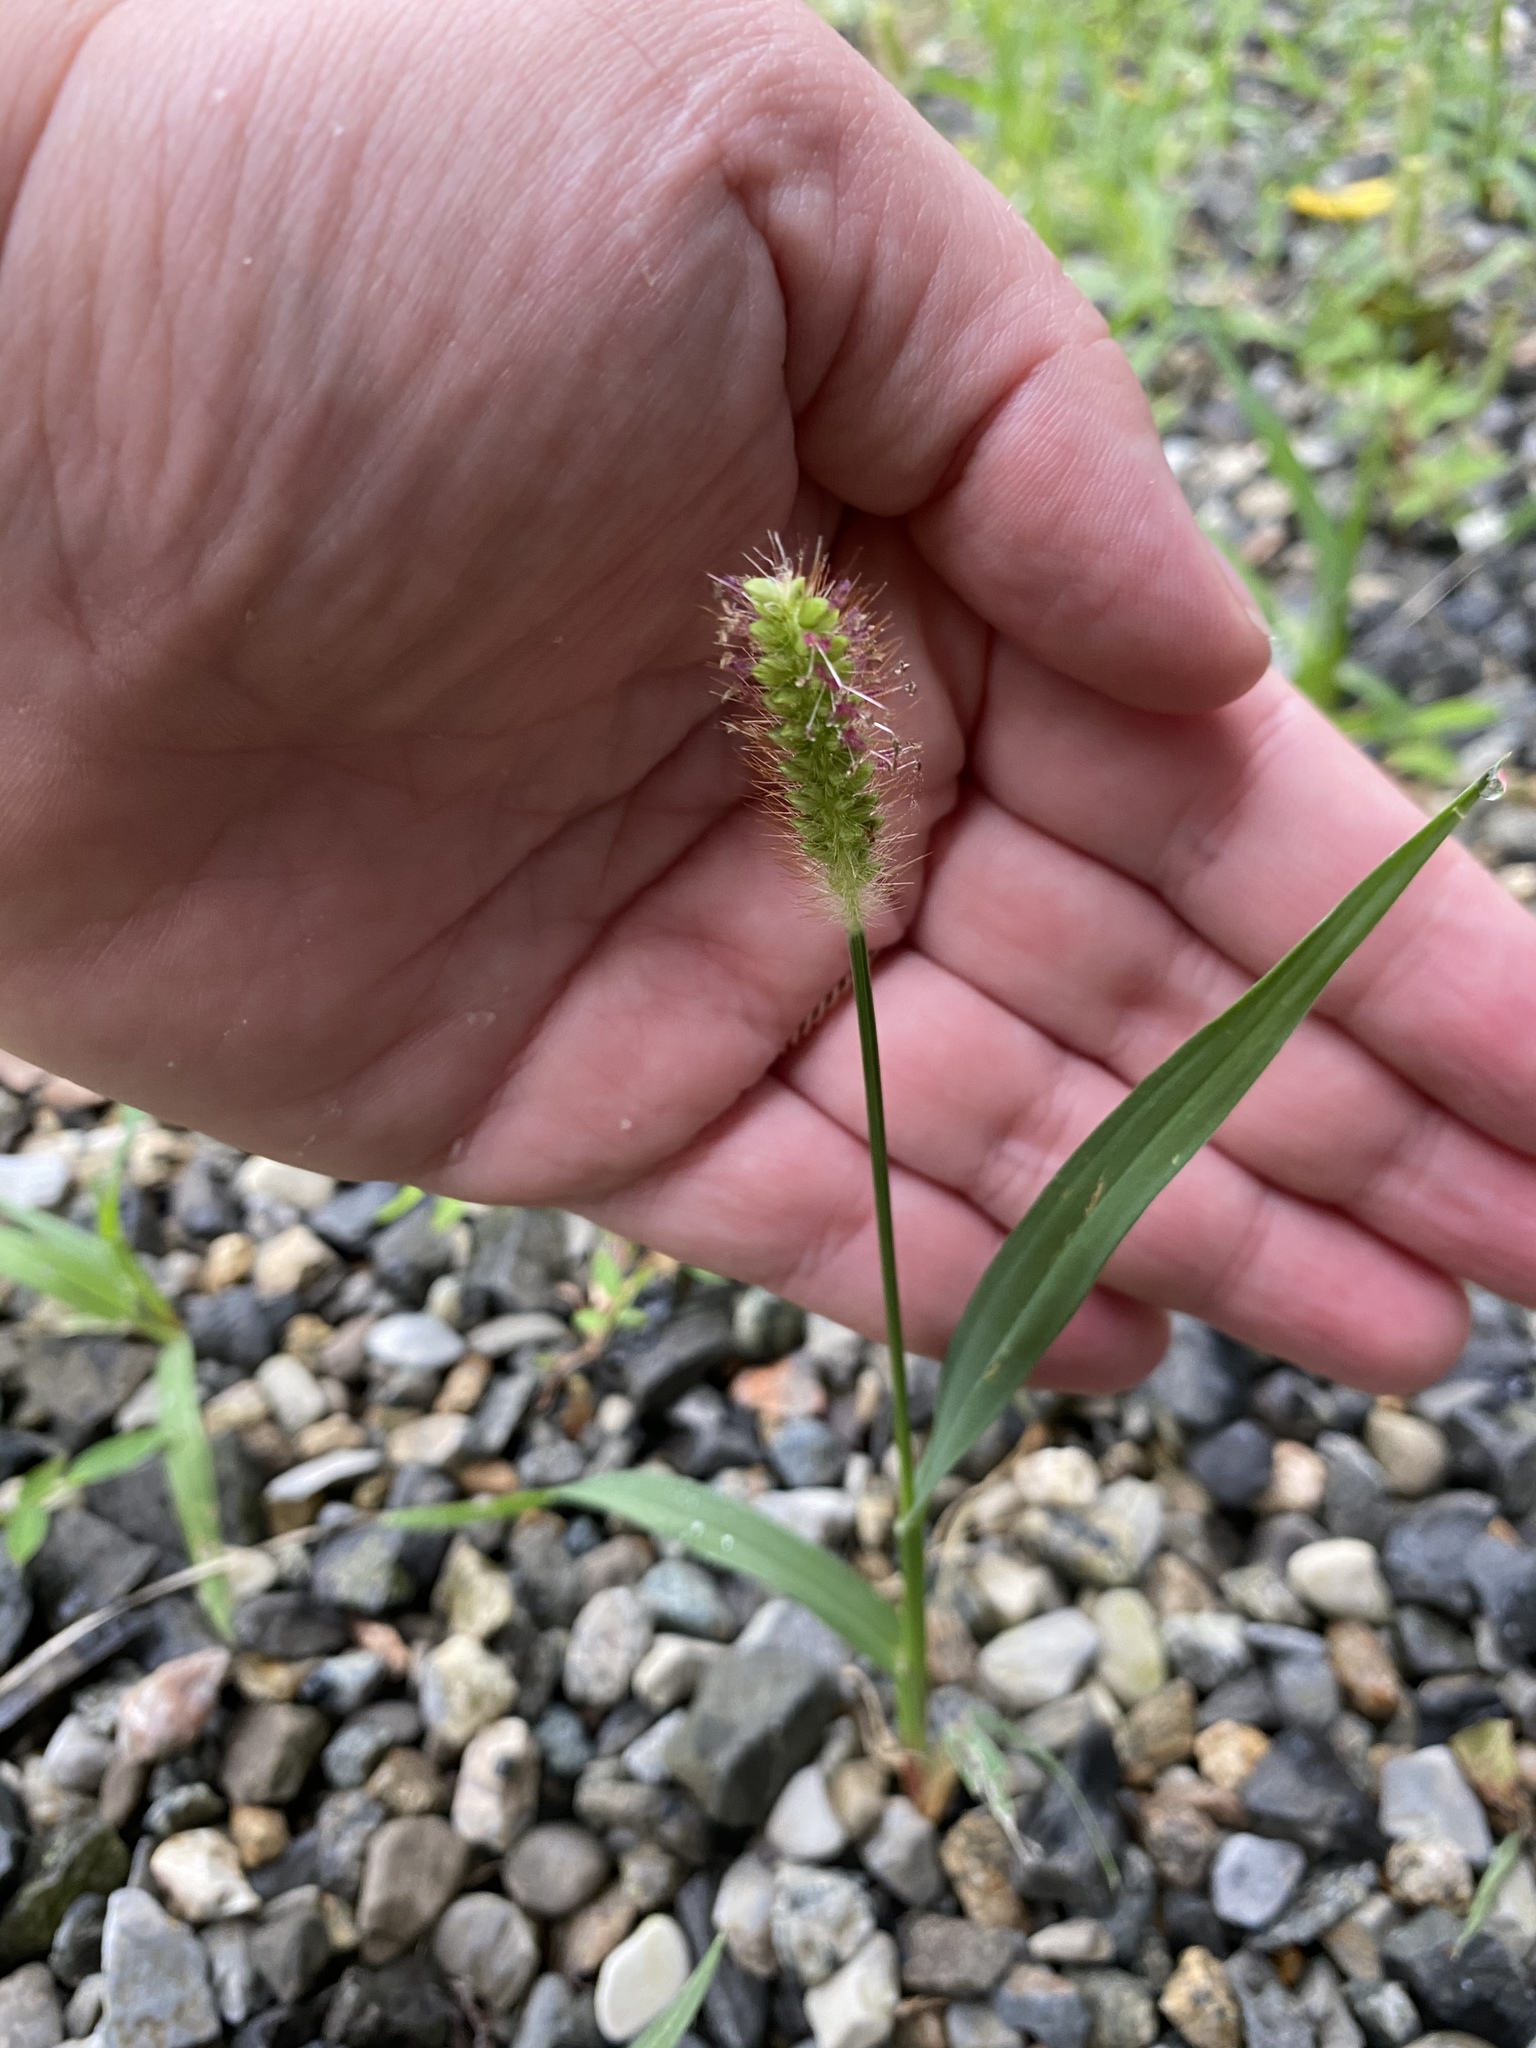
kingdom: Plantae
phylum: Tracheophyta
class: Liliopsida
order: Poales
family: Poaceae
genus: Setaria
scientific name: Setaria pumila
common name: Yellow bristle-grass
